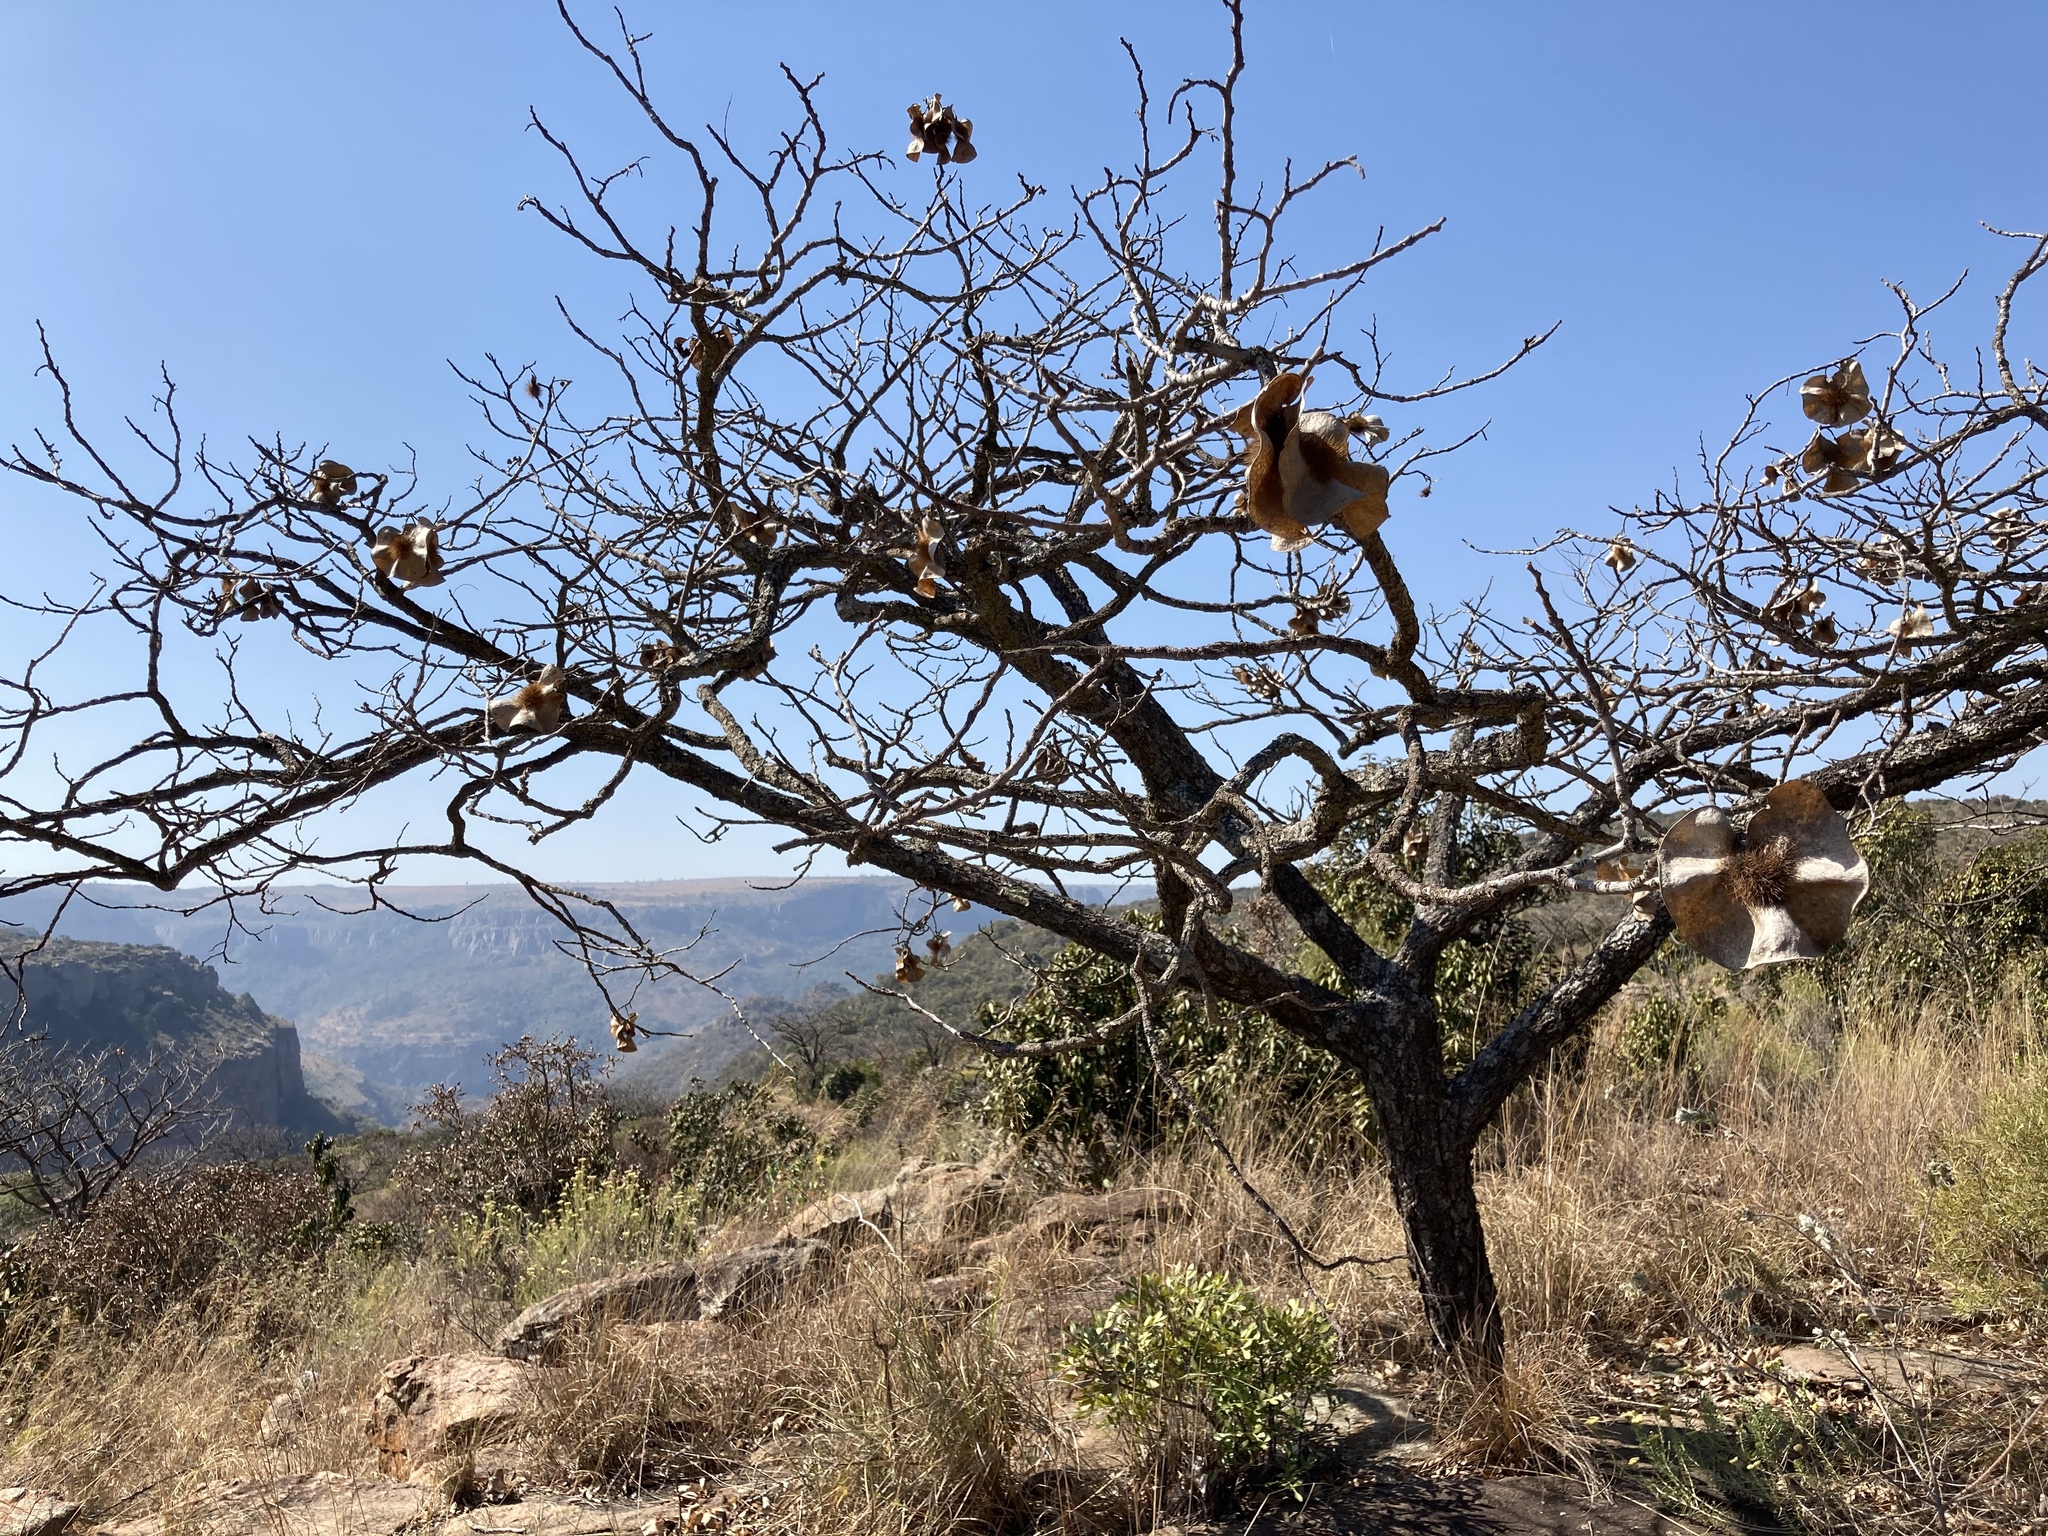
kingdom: Plantae
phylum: Tracheophyta
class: Magnoliopsida
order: Fabales
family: Fabaceae
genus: Pterocarpus
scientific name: Pterocarpus angolensis
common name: Bloodwood tree
